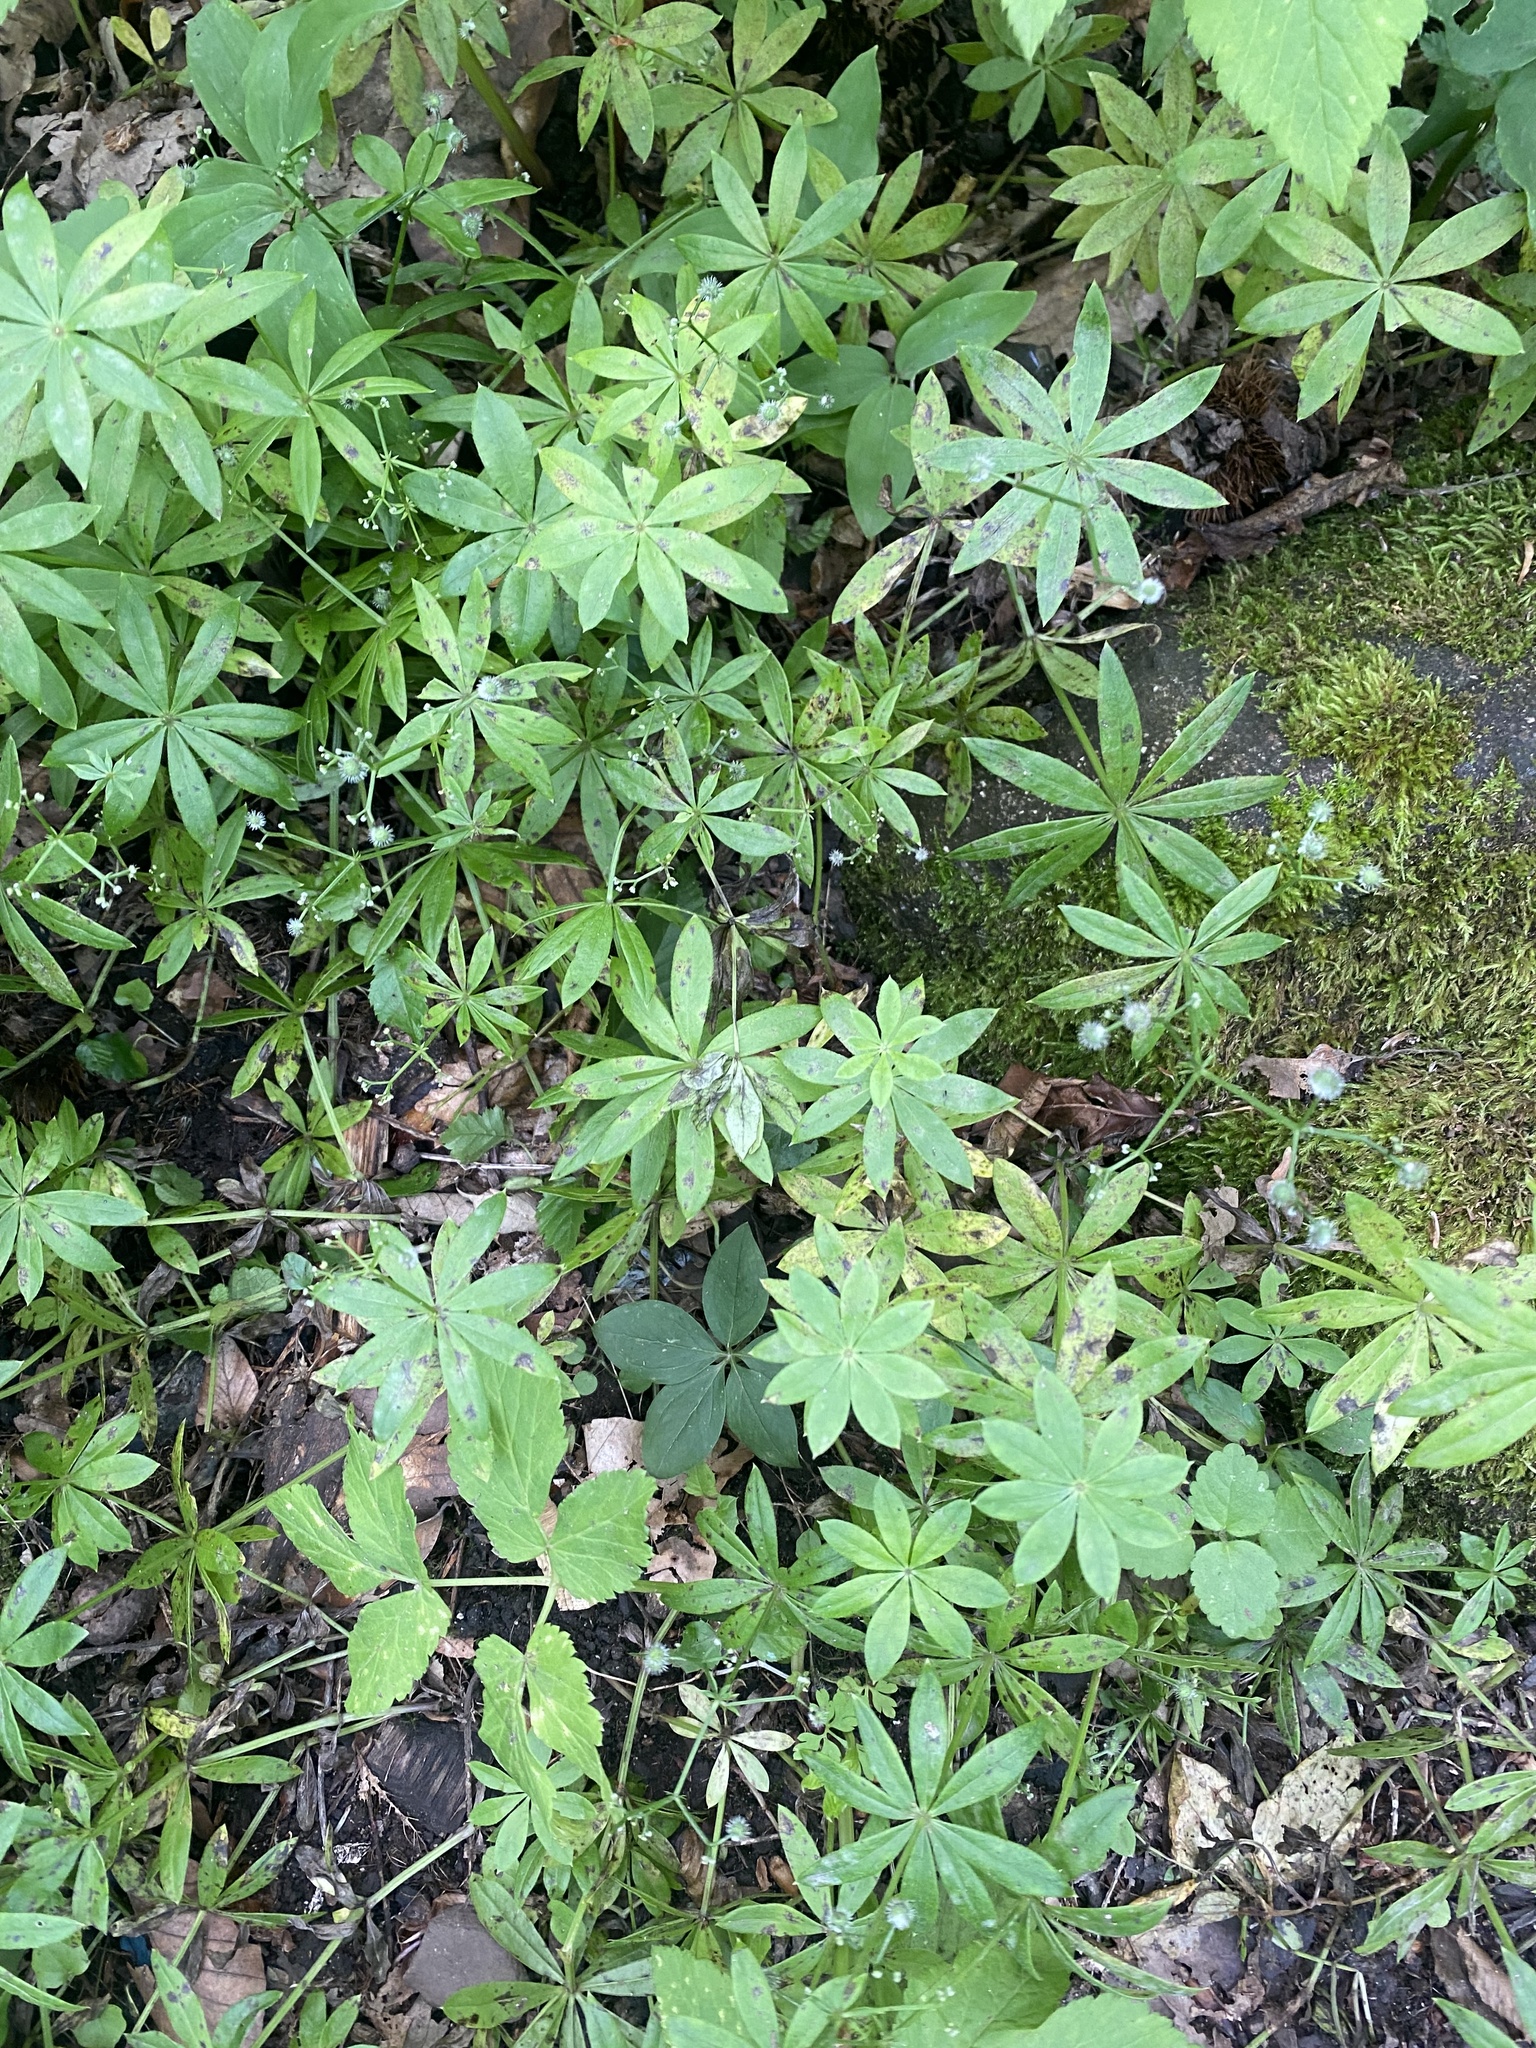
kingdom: Plantae
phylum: Tracheophyta
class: Magnoliopsida
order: Gentianales
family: Rubiaceae
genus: Galium
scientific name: Galium odoratum
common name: Sweet woodruff
